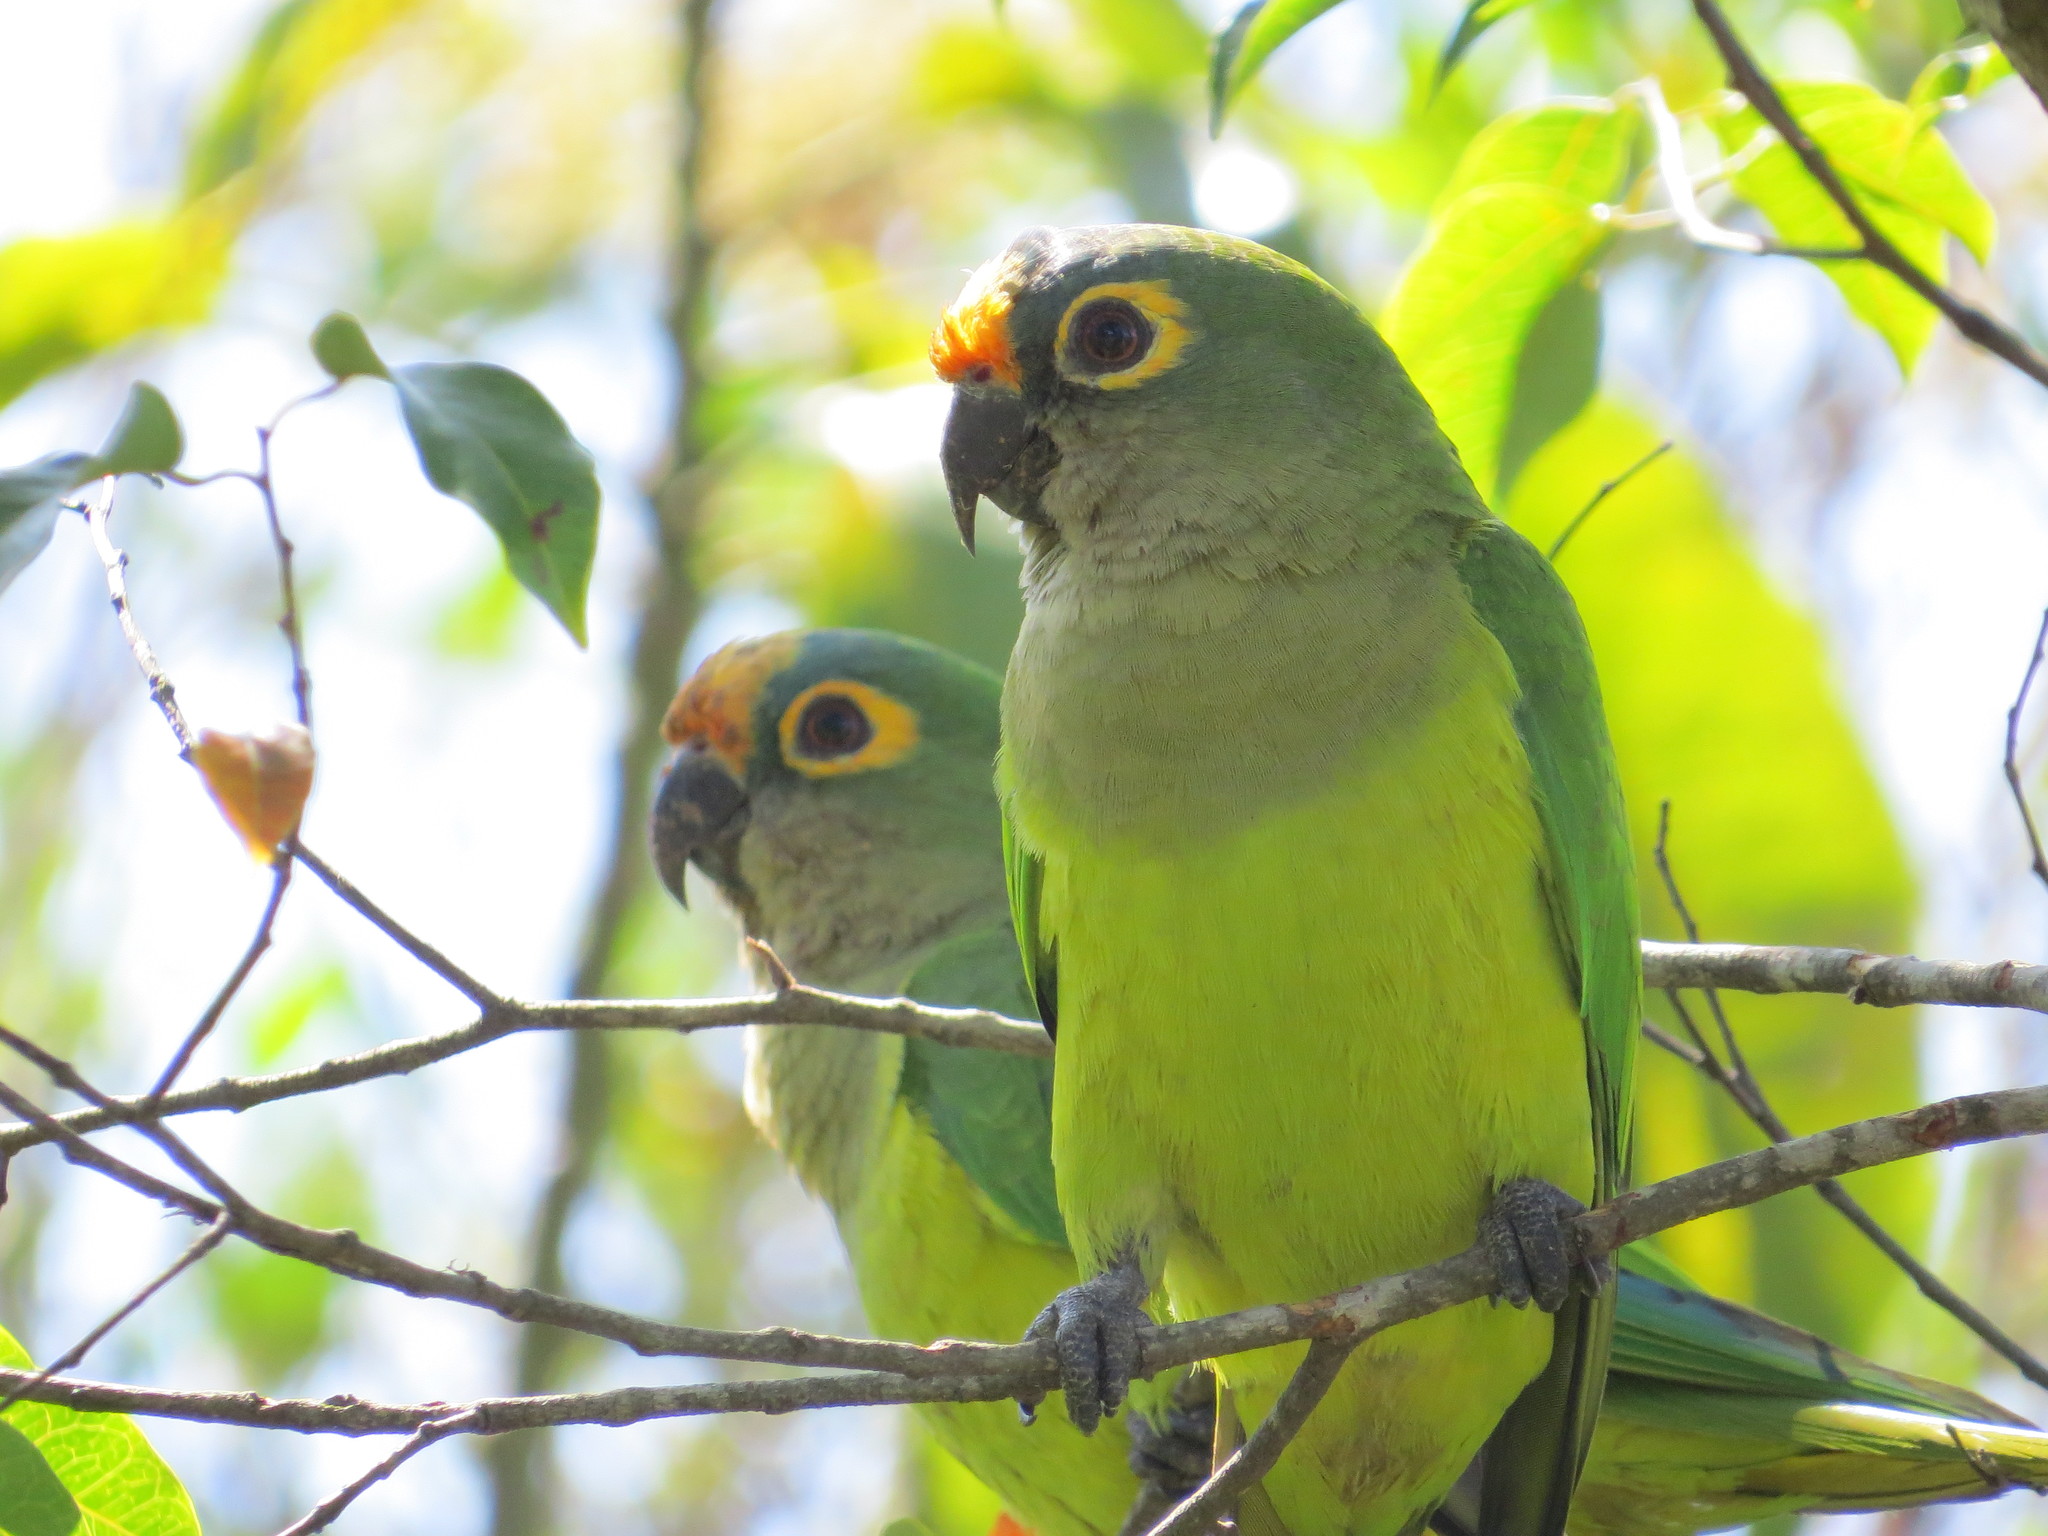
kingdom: Animalia
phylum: Chordata
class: Aves
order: Psittaciformes
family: Psittacidae
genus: Aratinga
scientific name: Aratinga aurea
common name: Peach-fronted parakeet
